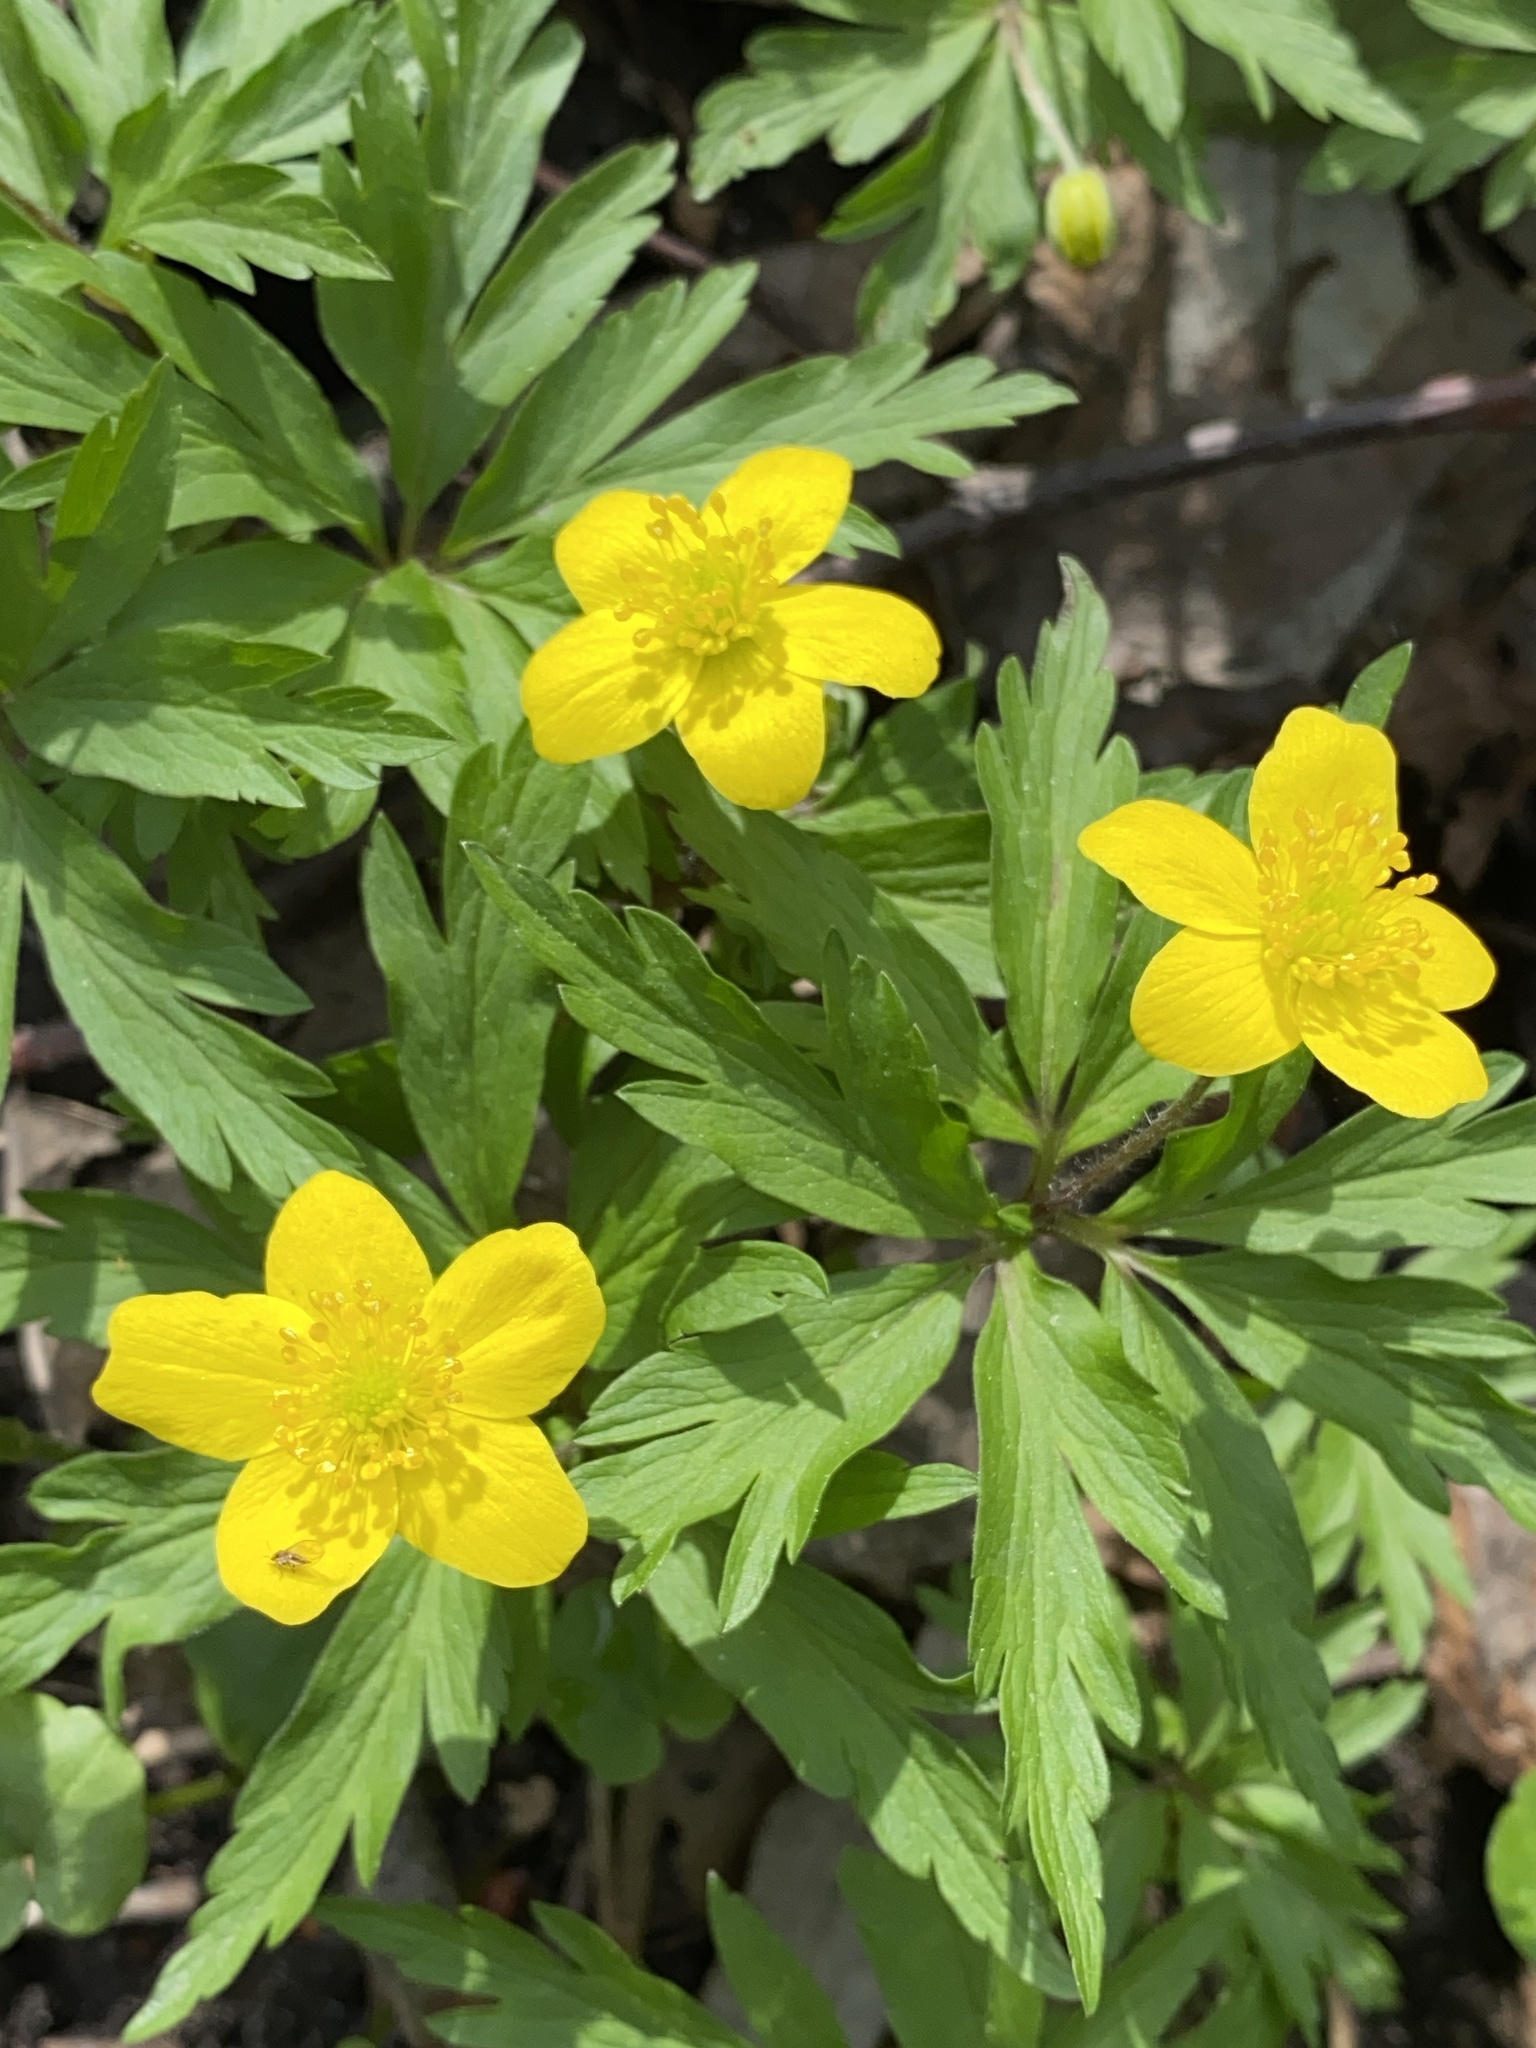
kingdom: Plantae
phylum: Tracheophyta
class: Magnoliopsida
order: Ranunculales
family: Ranunculaceae
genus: Anemone
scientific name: Anemone ranunculoides
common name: Yellow anemone
